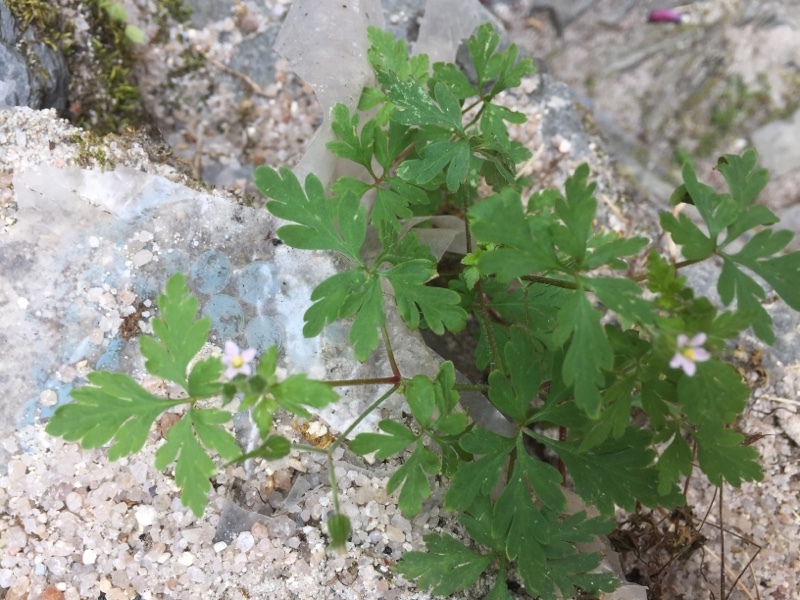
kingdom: Plantae
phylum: Tracheophyta
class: Magnoliopsida
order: Geraniales
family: Geraniaceae
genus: Geranium
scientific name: Geranium robertianum
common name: Herb-robert
